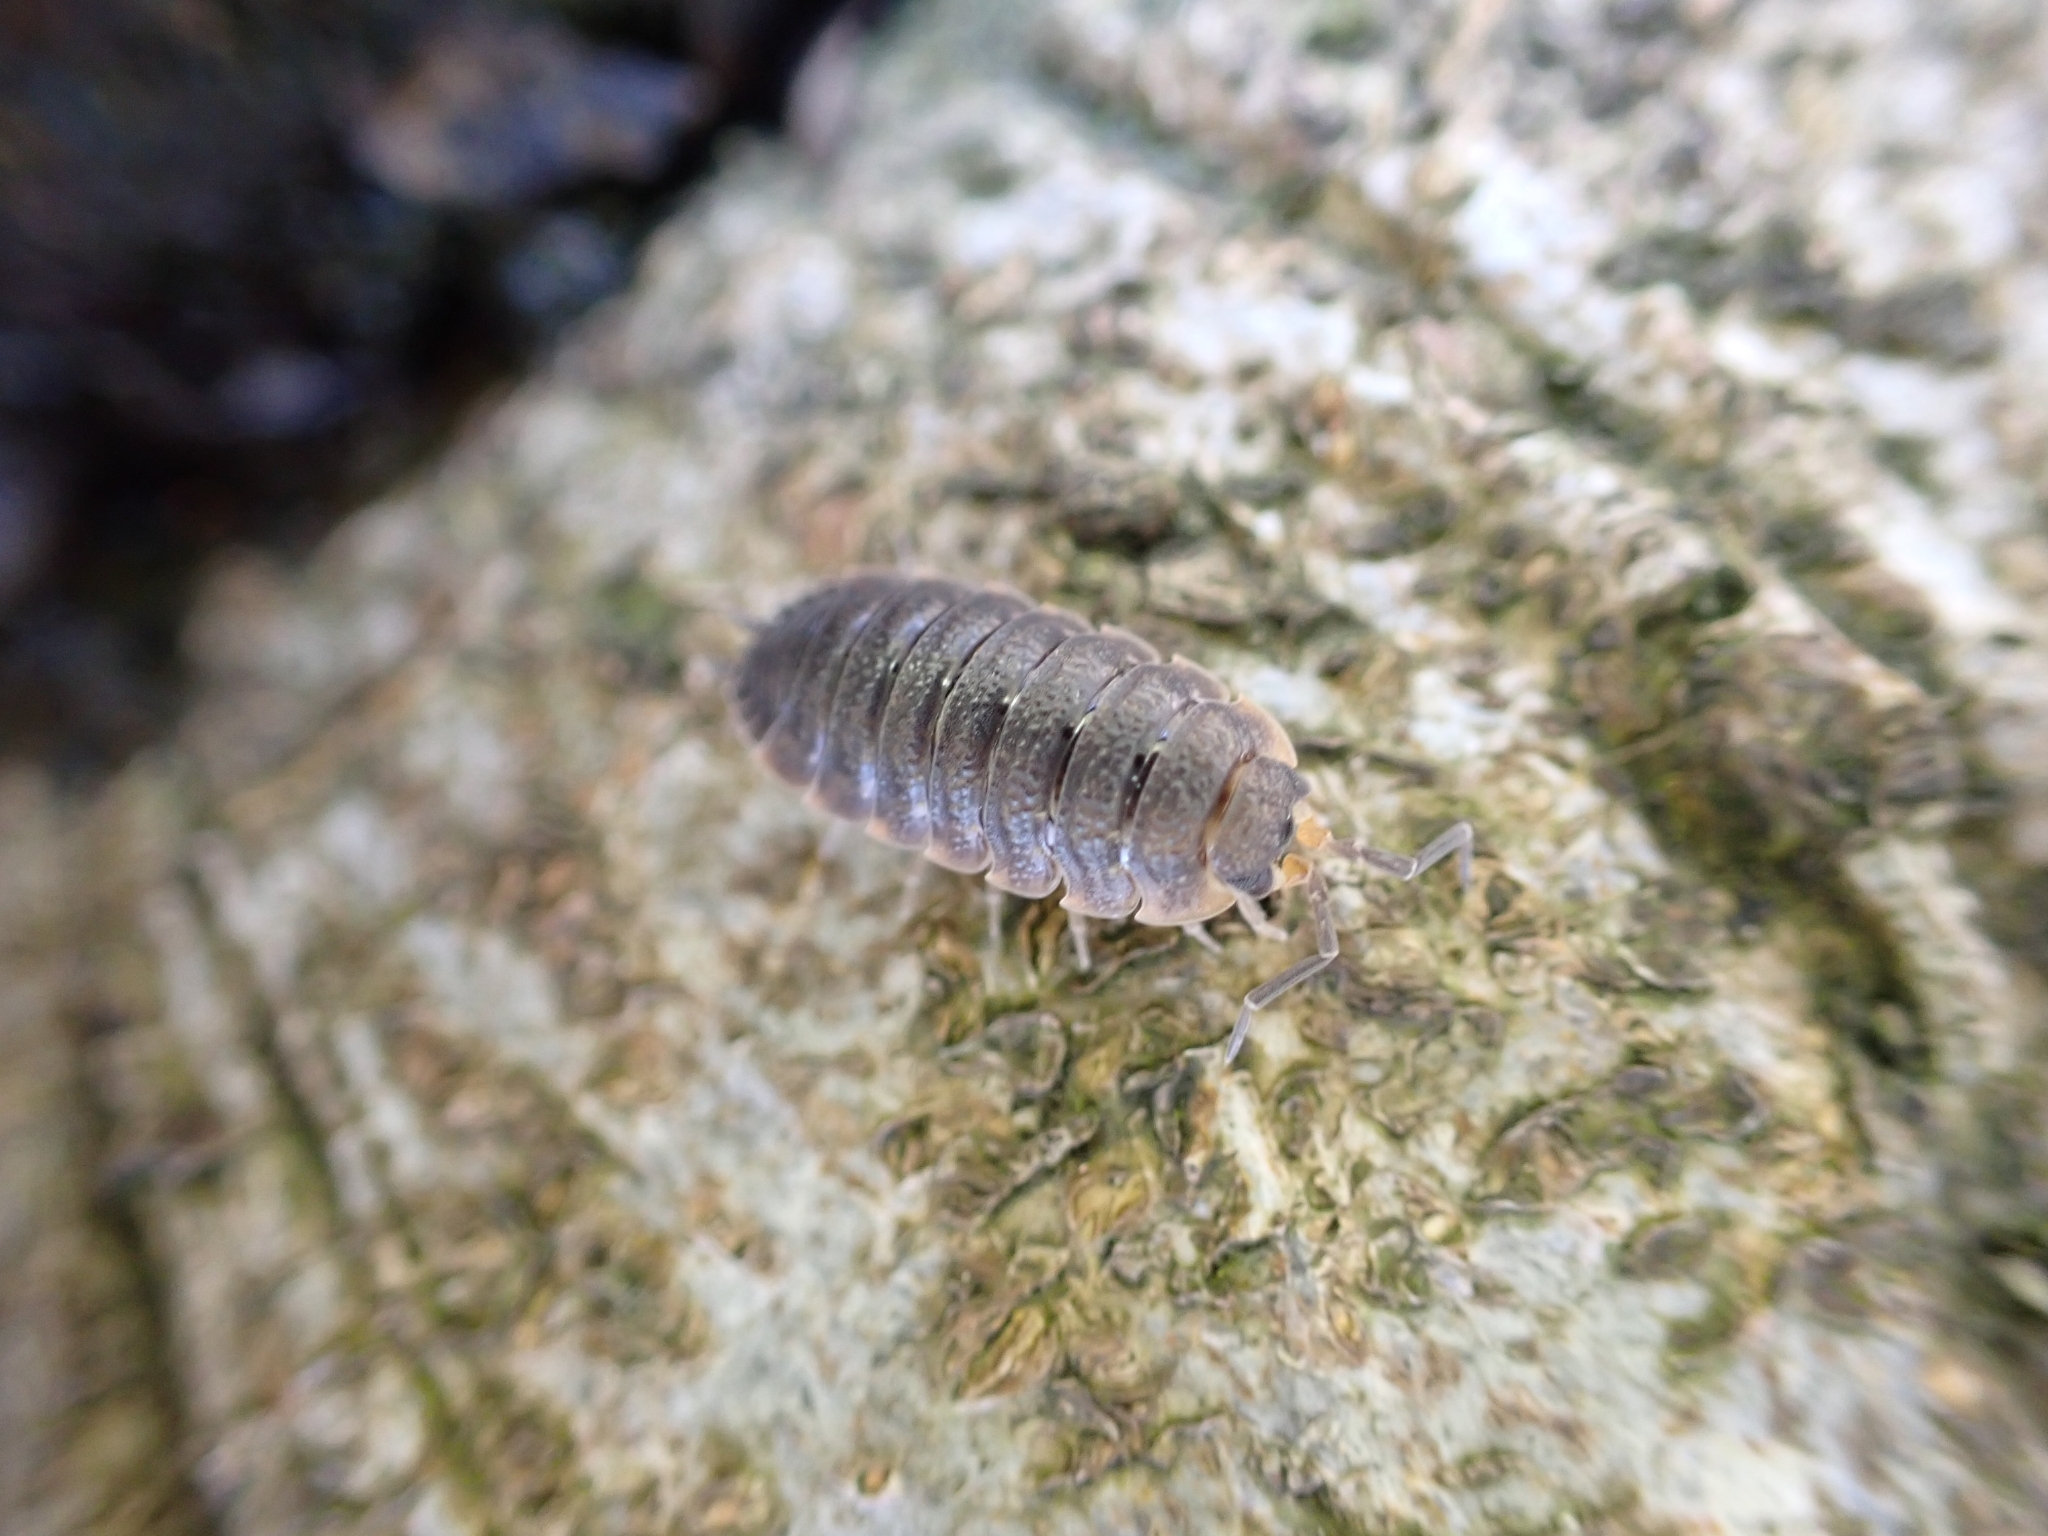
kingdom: Animalia
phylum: Arthropoda
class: Malacostraca
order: Isopoda
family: Porcellionidae
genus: Porcellio
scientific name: Porcellio scaber
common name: Common rough woodlouse
